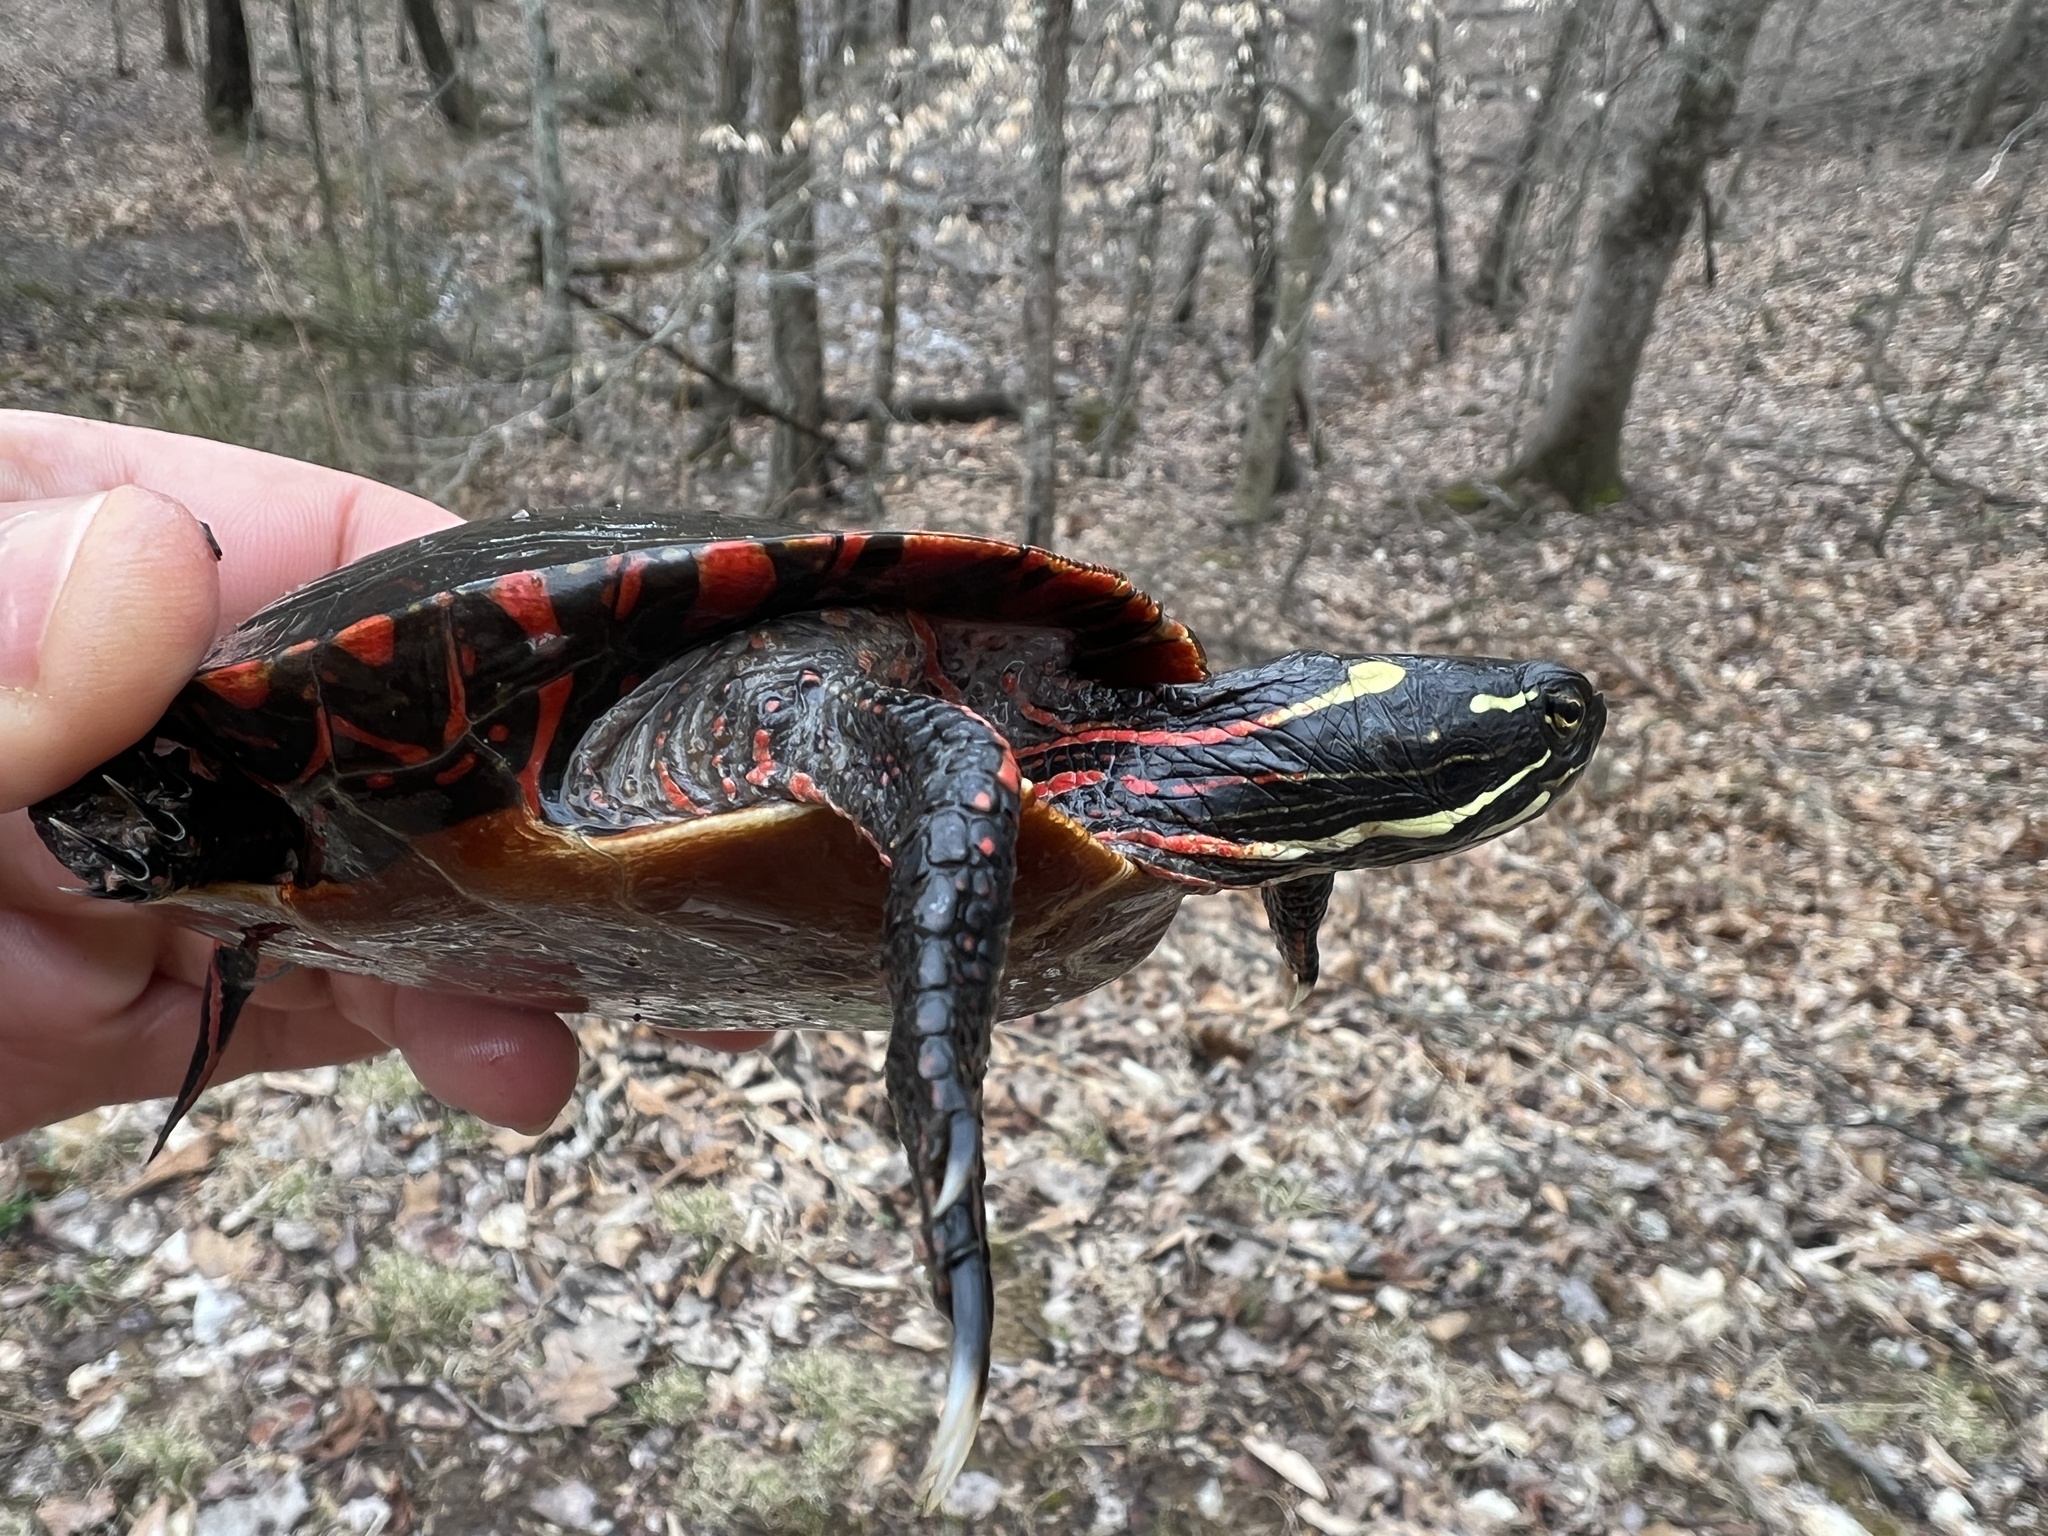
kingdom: Animalia
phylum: Chordata
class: Testudines
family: Emydidae
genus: Chrysemys
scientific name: Chrysemys picta
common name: Painted turtle
